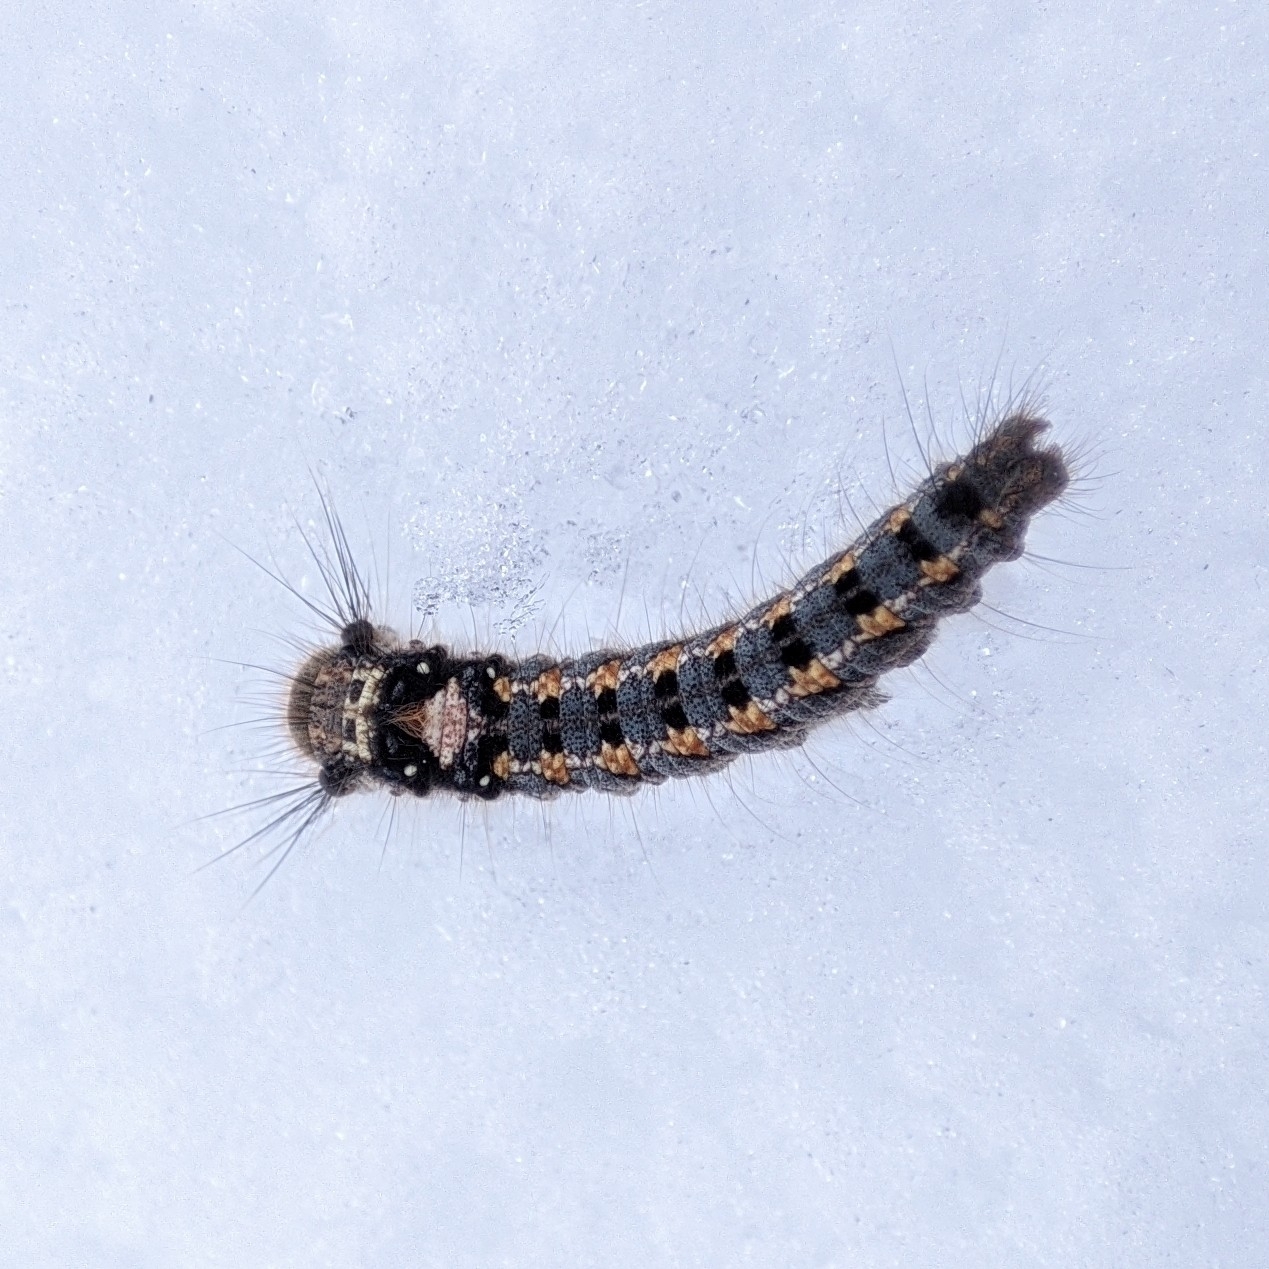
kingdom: Animalia
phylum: Arthropoda
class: Insecta
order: Lepidoptera
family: Lasiocampidae
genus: Euthrix
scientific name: Euthrix potatoria
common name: Drinker
